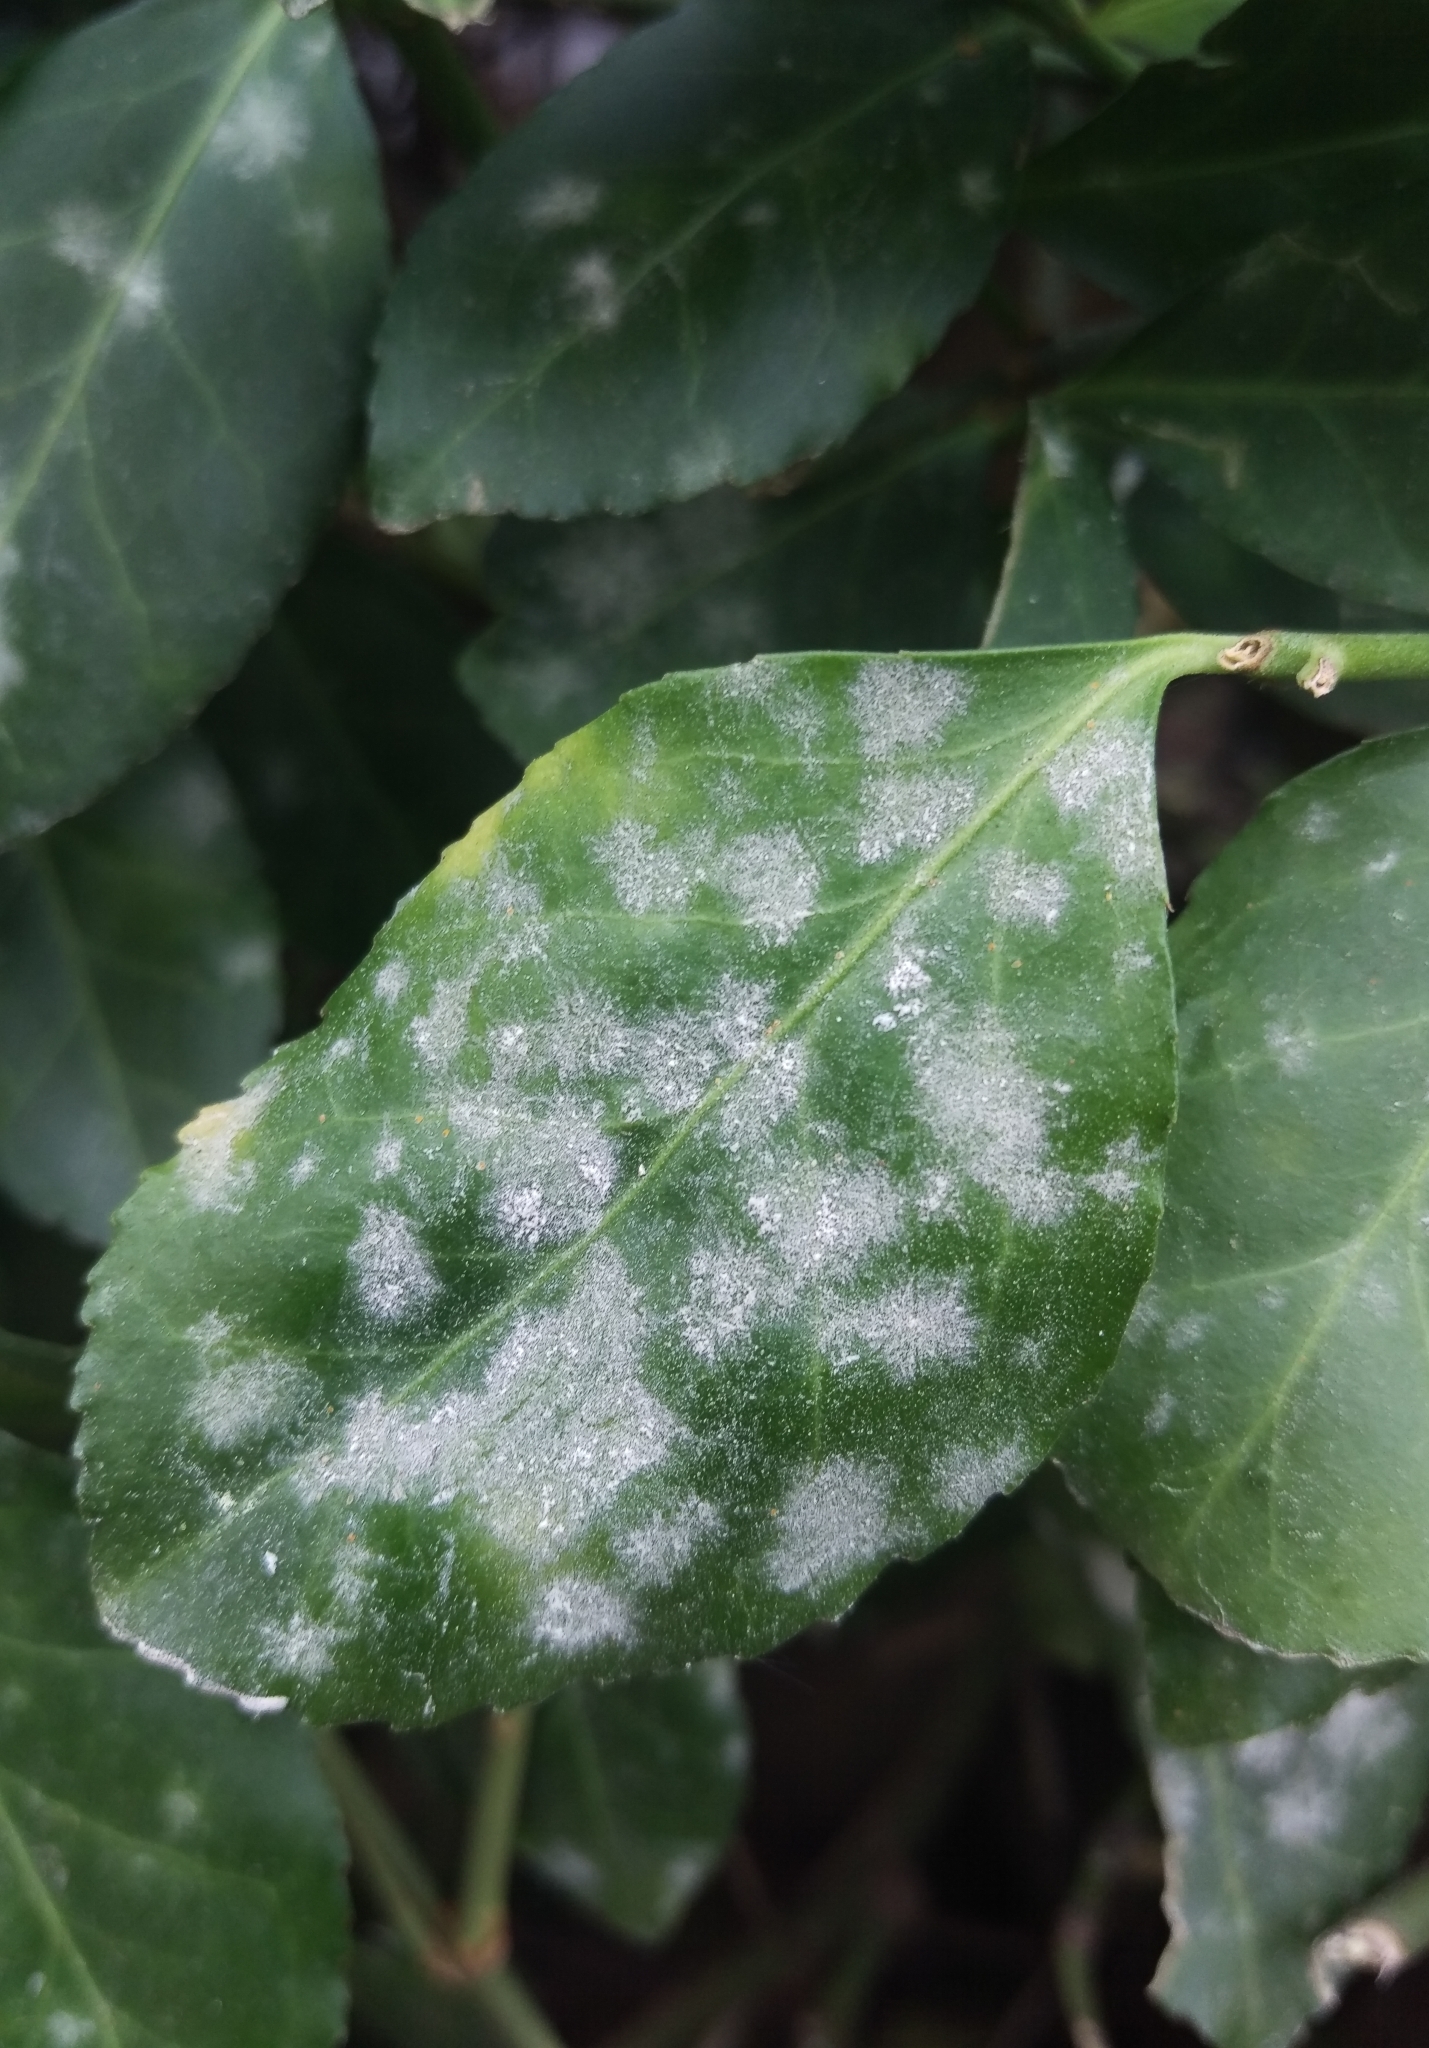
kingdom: Fungi
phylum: Ascomycota
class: Leotiomycetes
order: Helotiales
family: Erysiphaceae
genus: Erysiphe
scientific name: Erysiphe euonymicola
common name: Spindletree mildew
